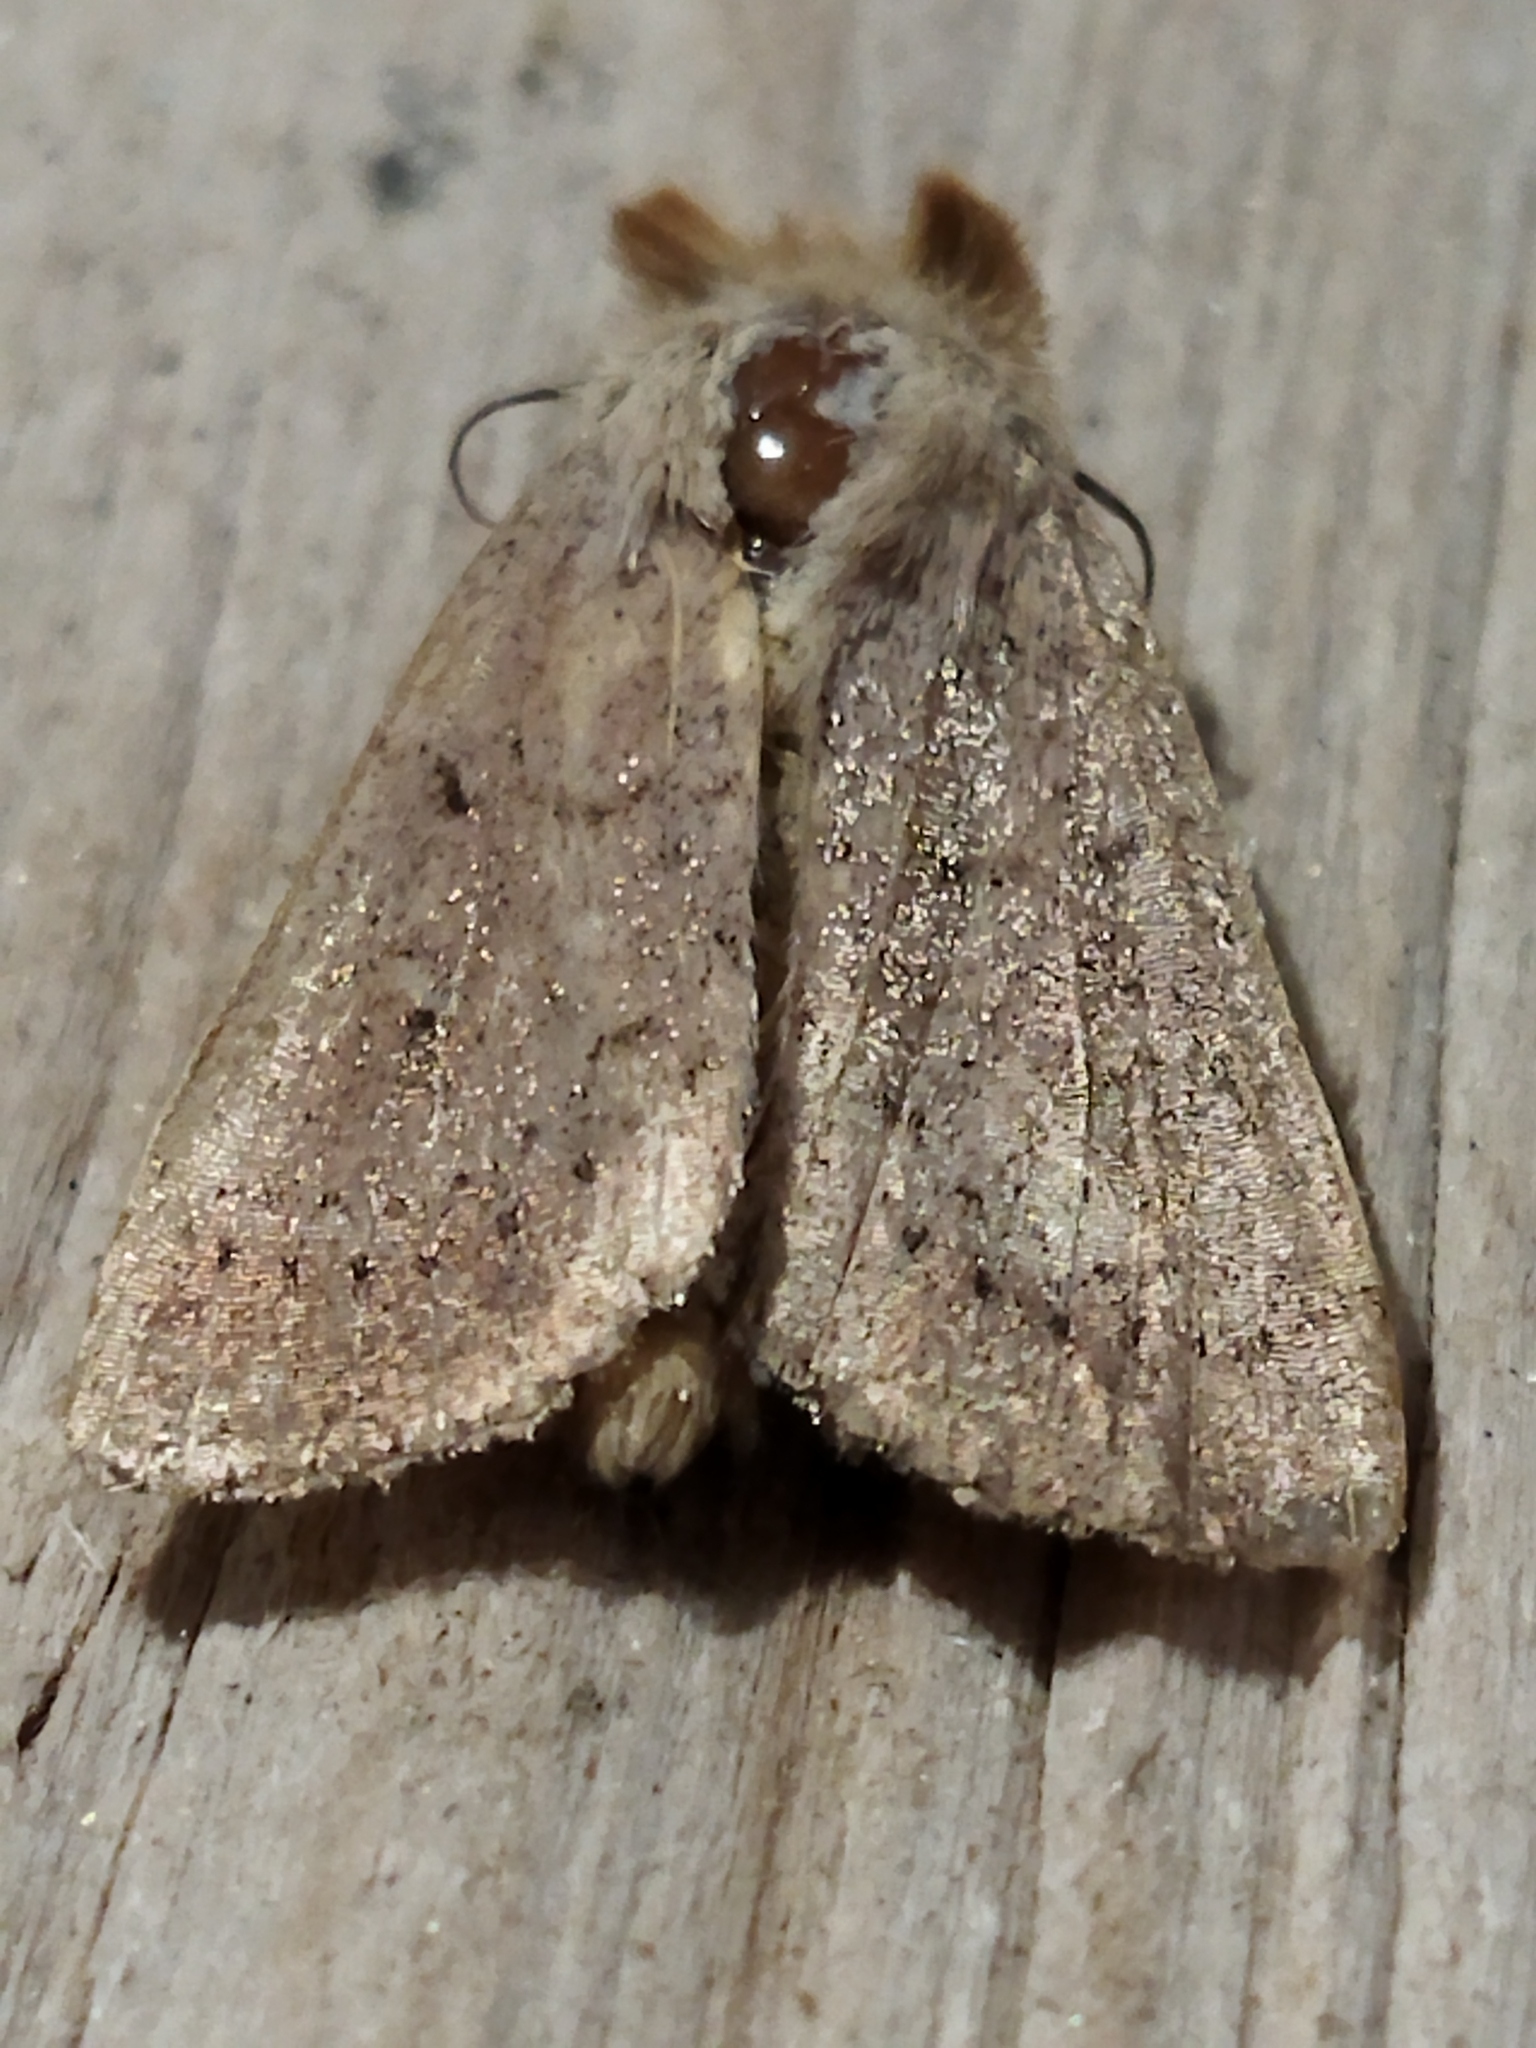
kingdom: Animalia
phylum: Arthropoda
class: Insecta
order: Lepidoptera
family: Noctuidae
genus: Mythimna
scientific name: Mythimna ferrago
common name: Clay
